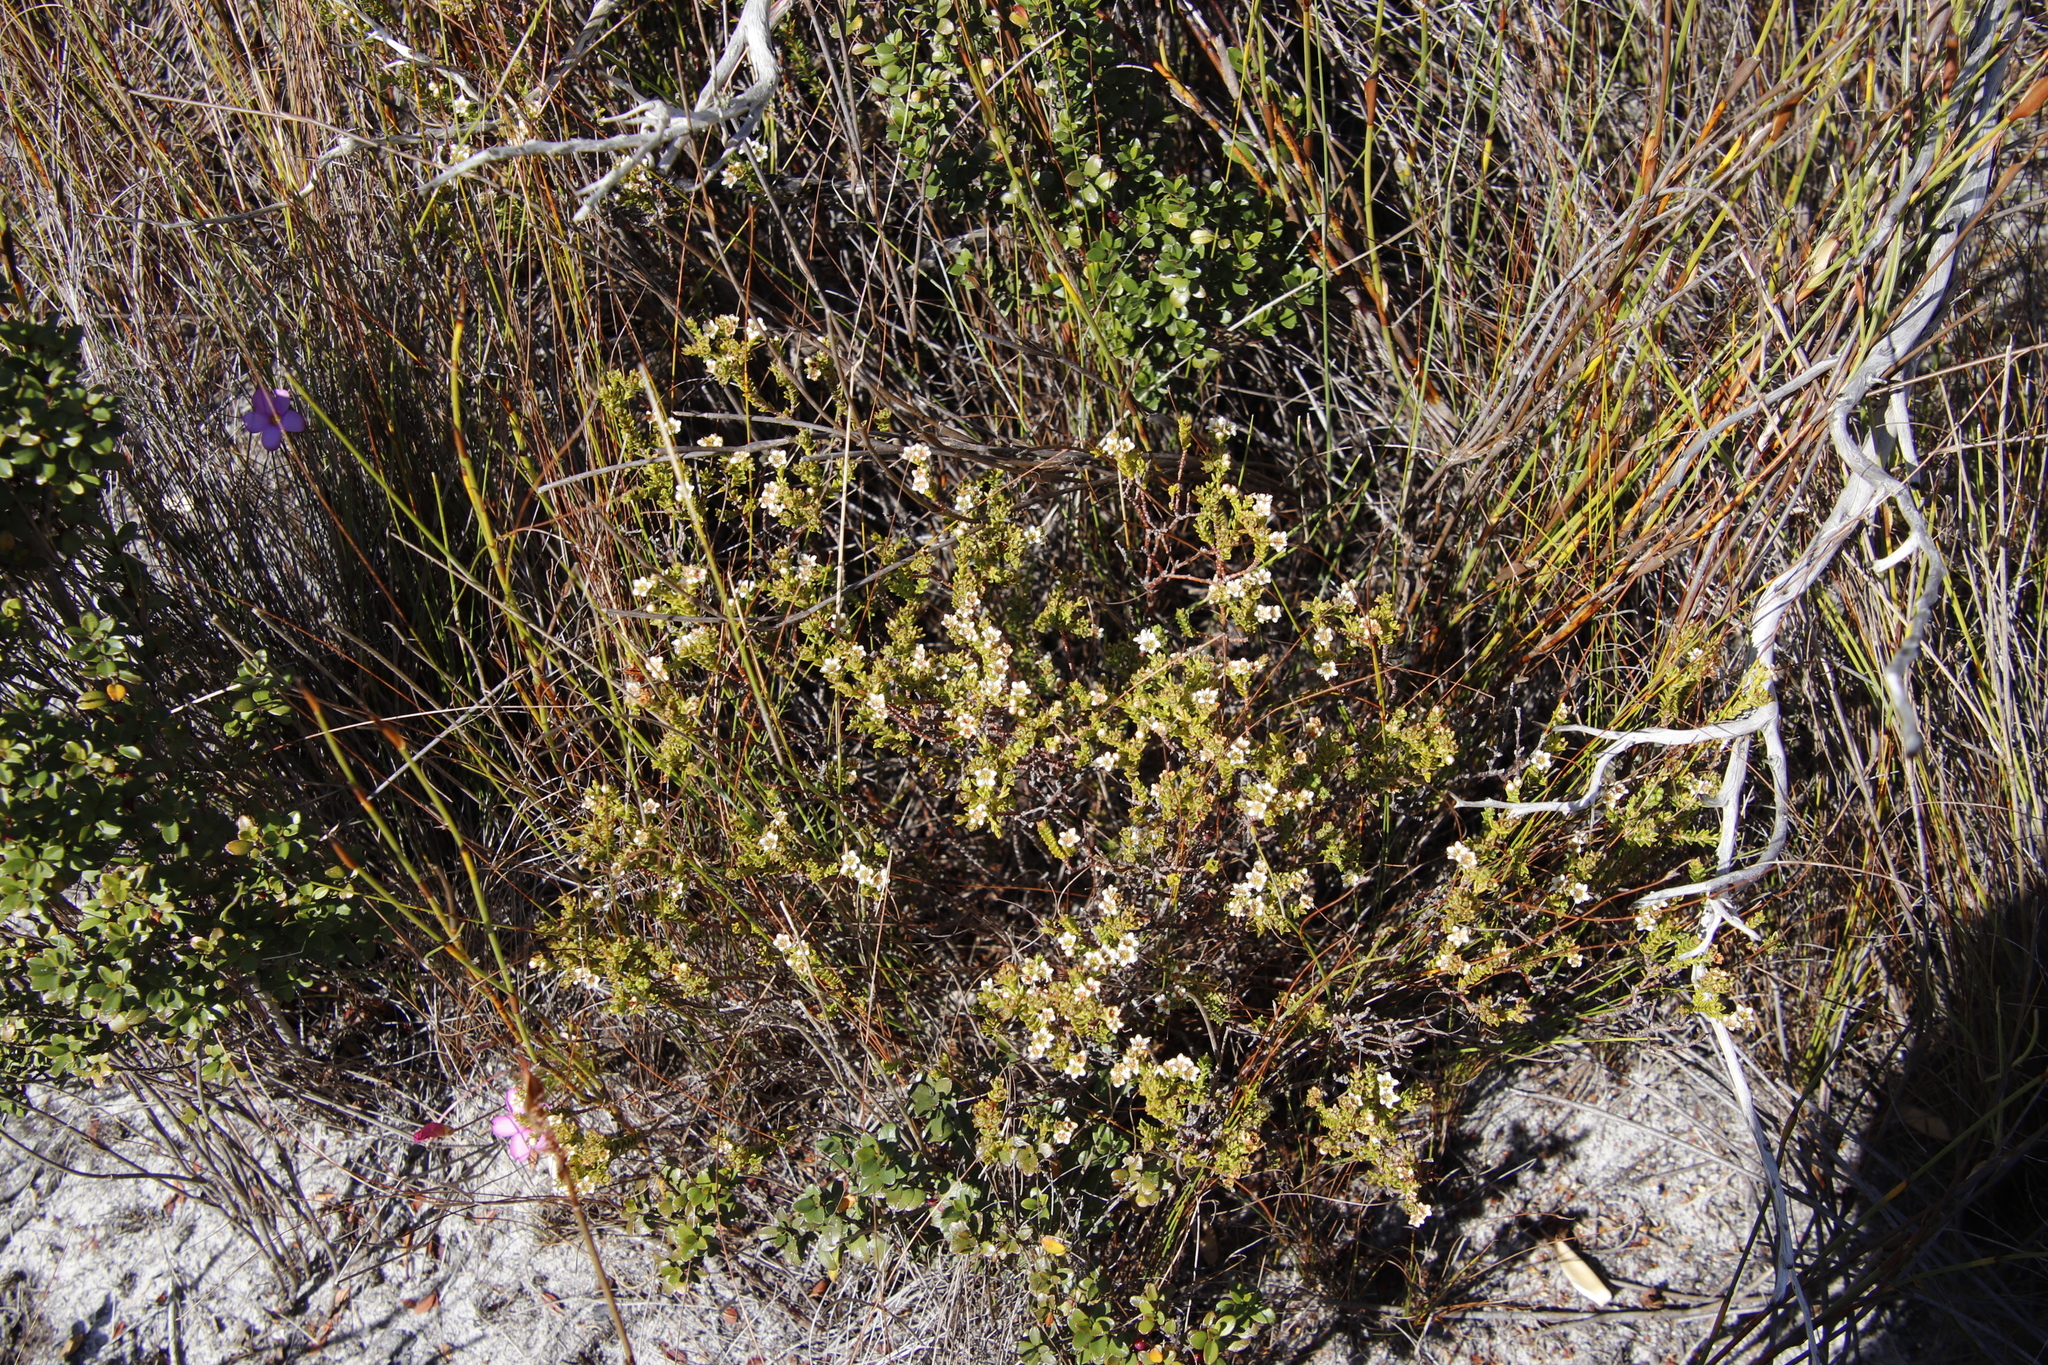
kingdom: Plantae
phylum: Tracheophyta
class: Magnoliopsida
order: Sapindales
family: Rutaceae
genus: Diosma
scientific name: Diosma oppositifolia
